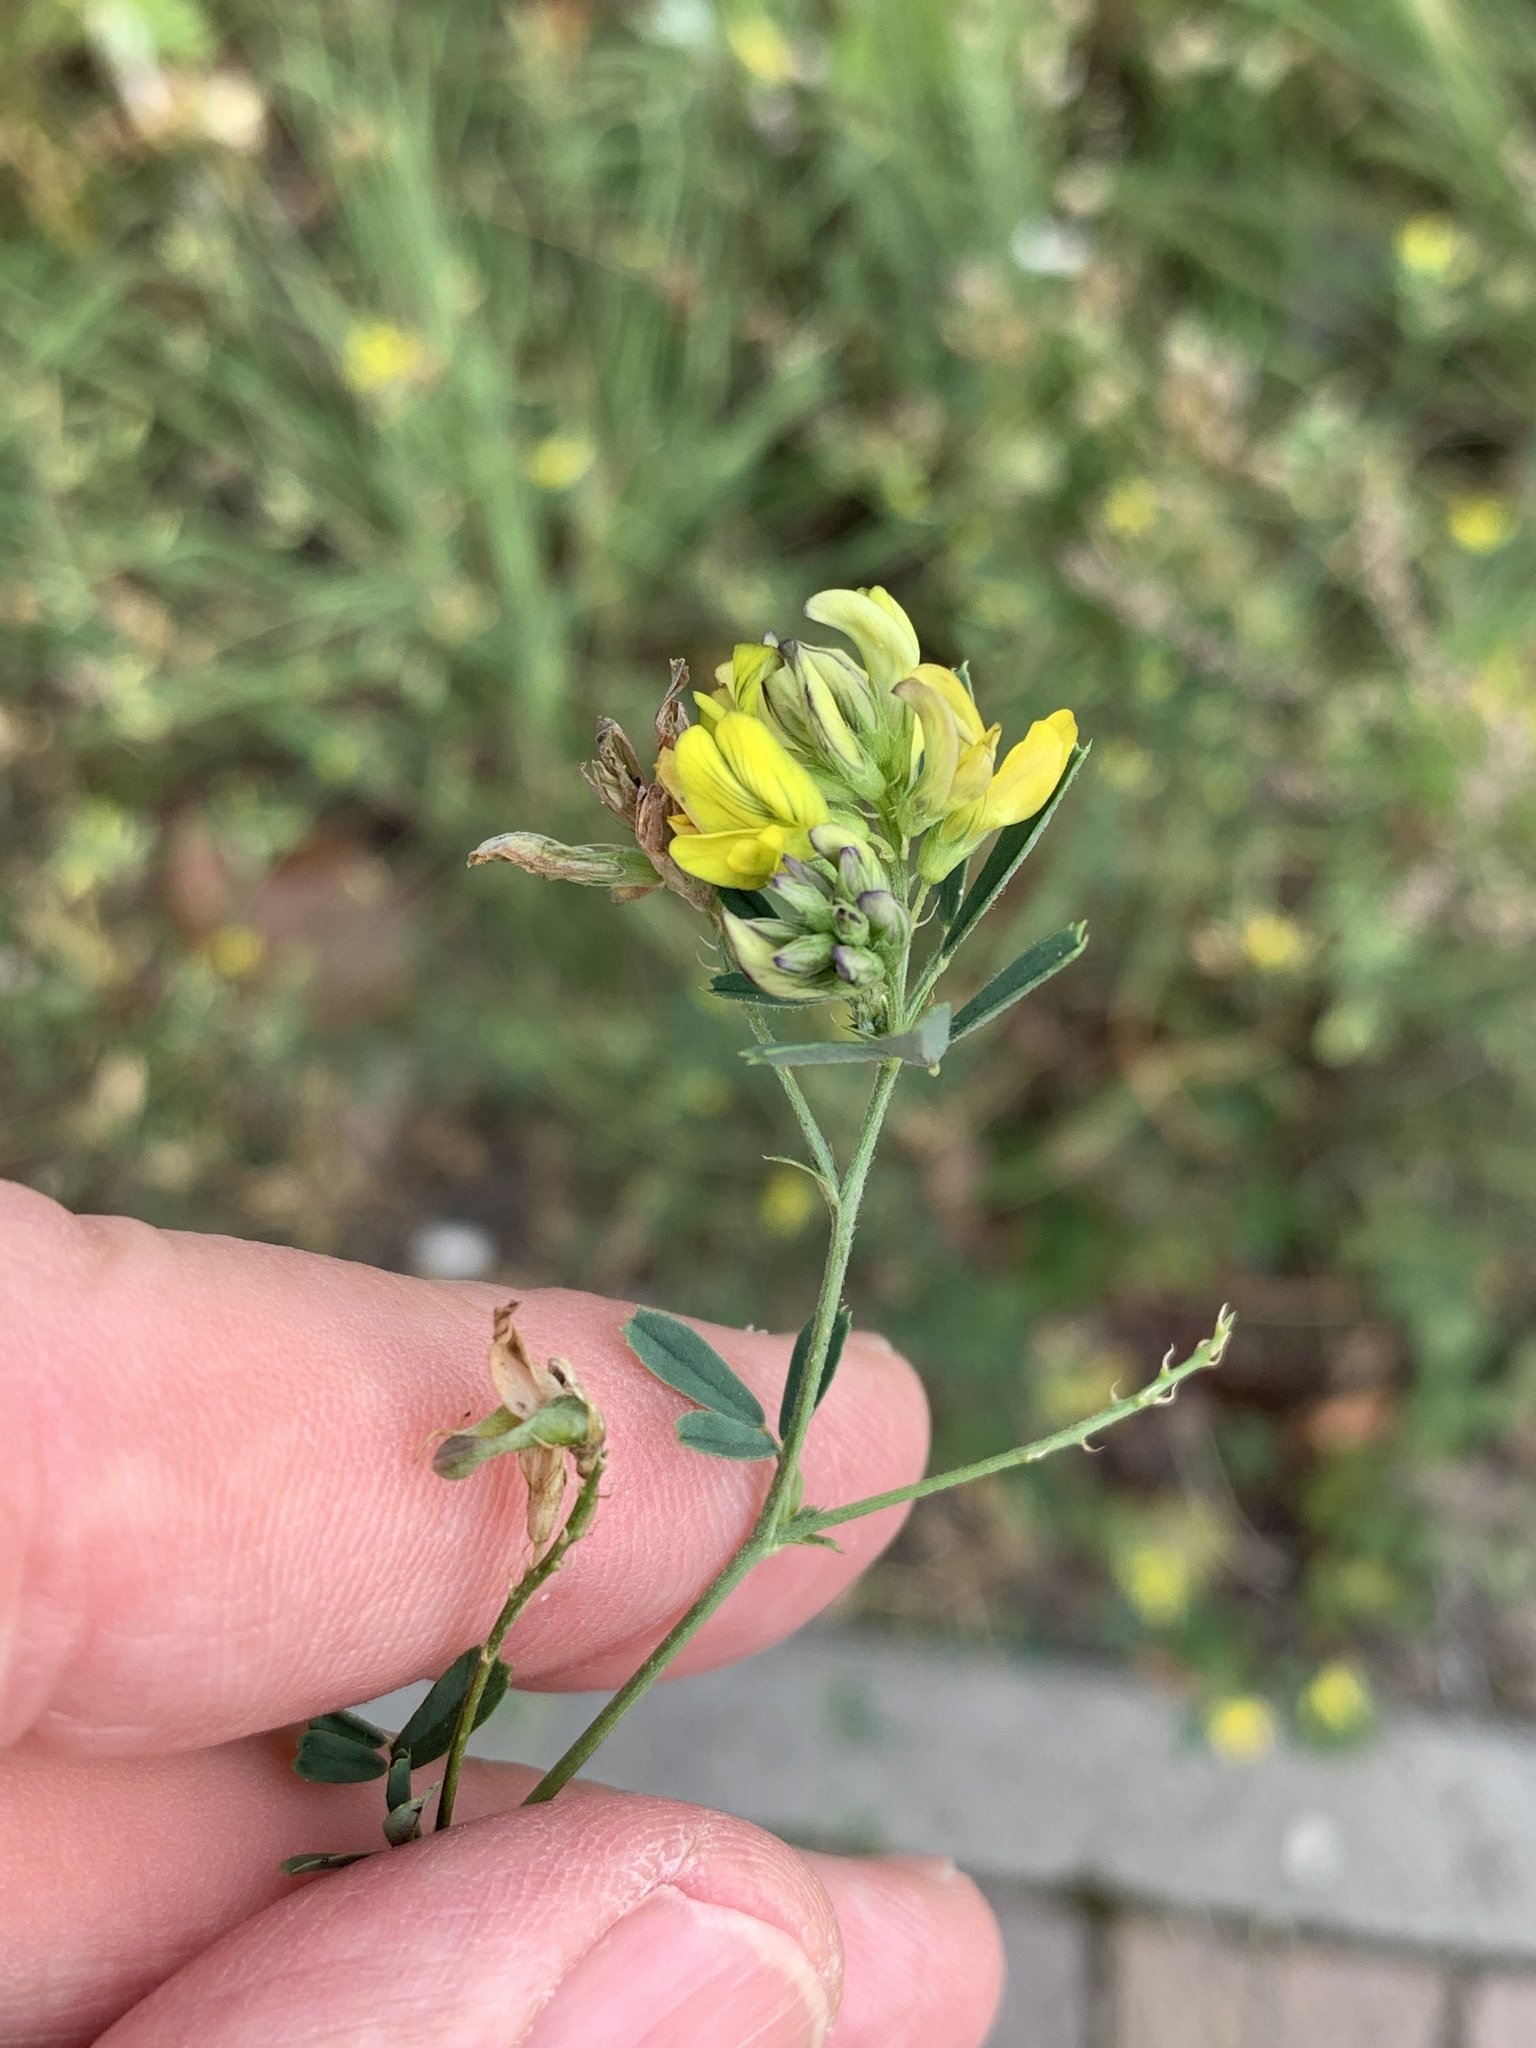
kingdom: Plantae
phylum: Tracheophyta
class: Magnoliopsida
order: Fabales
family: Fabaceae
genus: Medicago
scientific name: Medicago falcata
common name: Sickle medick
